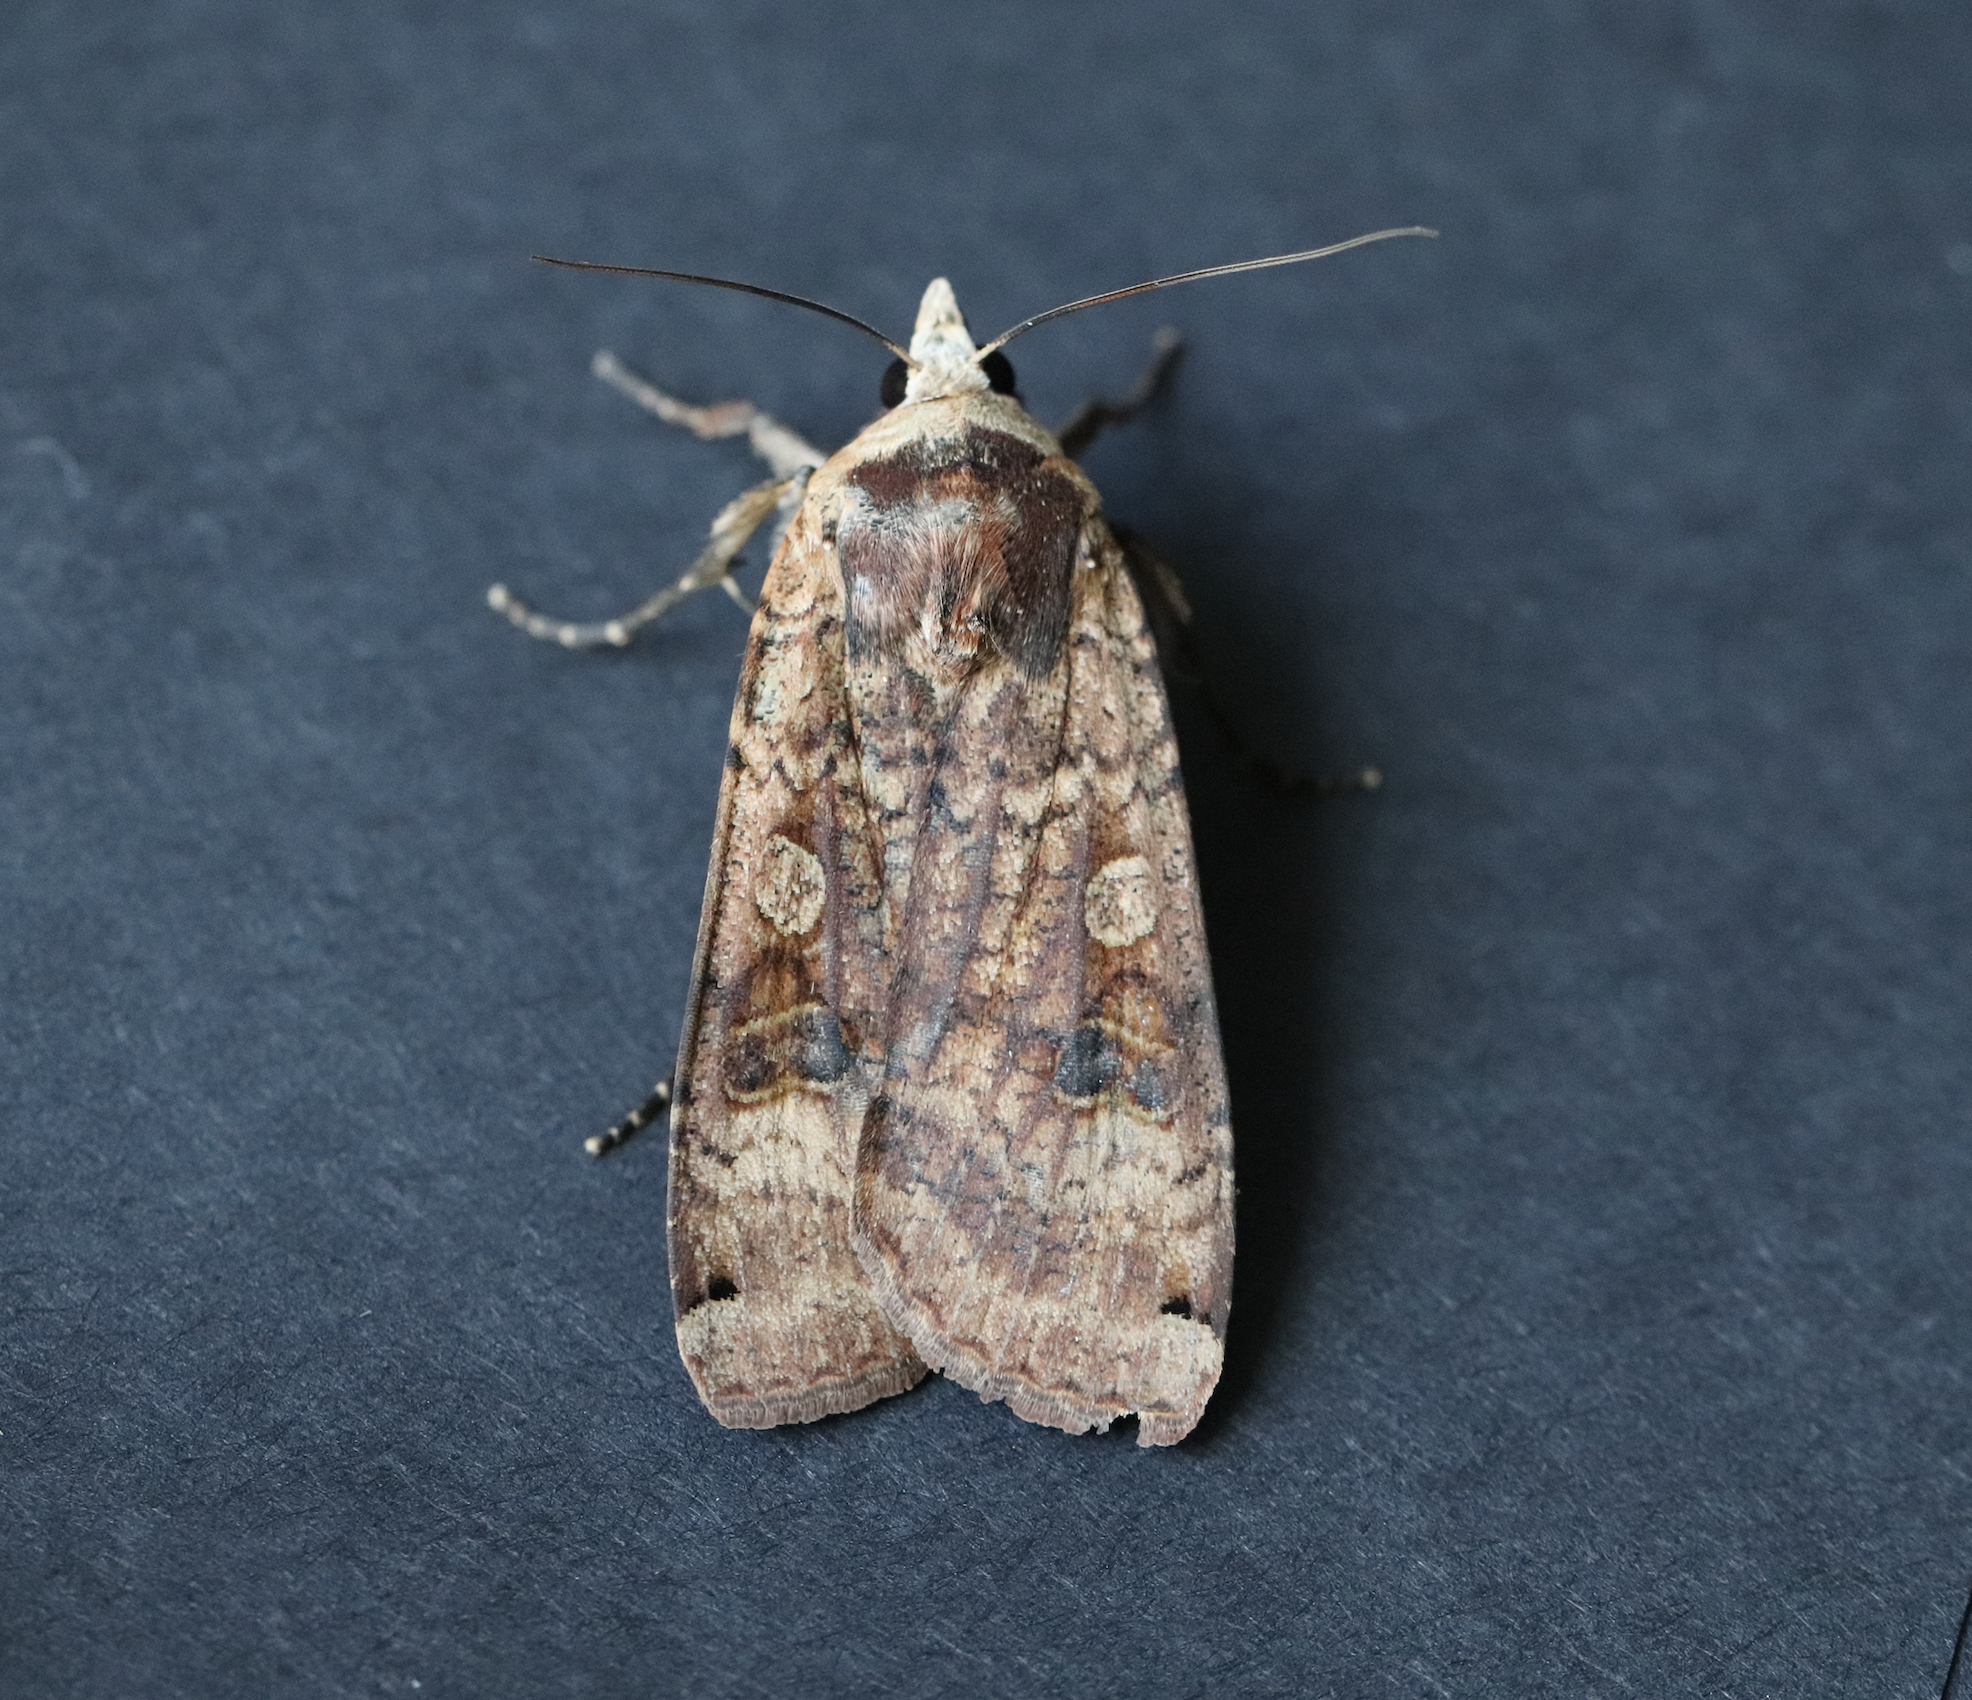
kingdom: Animalia
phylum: Arthropoda
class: Insecta
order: Lepidoptera
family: Noctuidae
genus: Noctua
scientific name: Noctua pronuba
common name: Large yellow underwing
